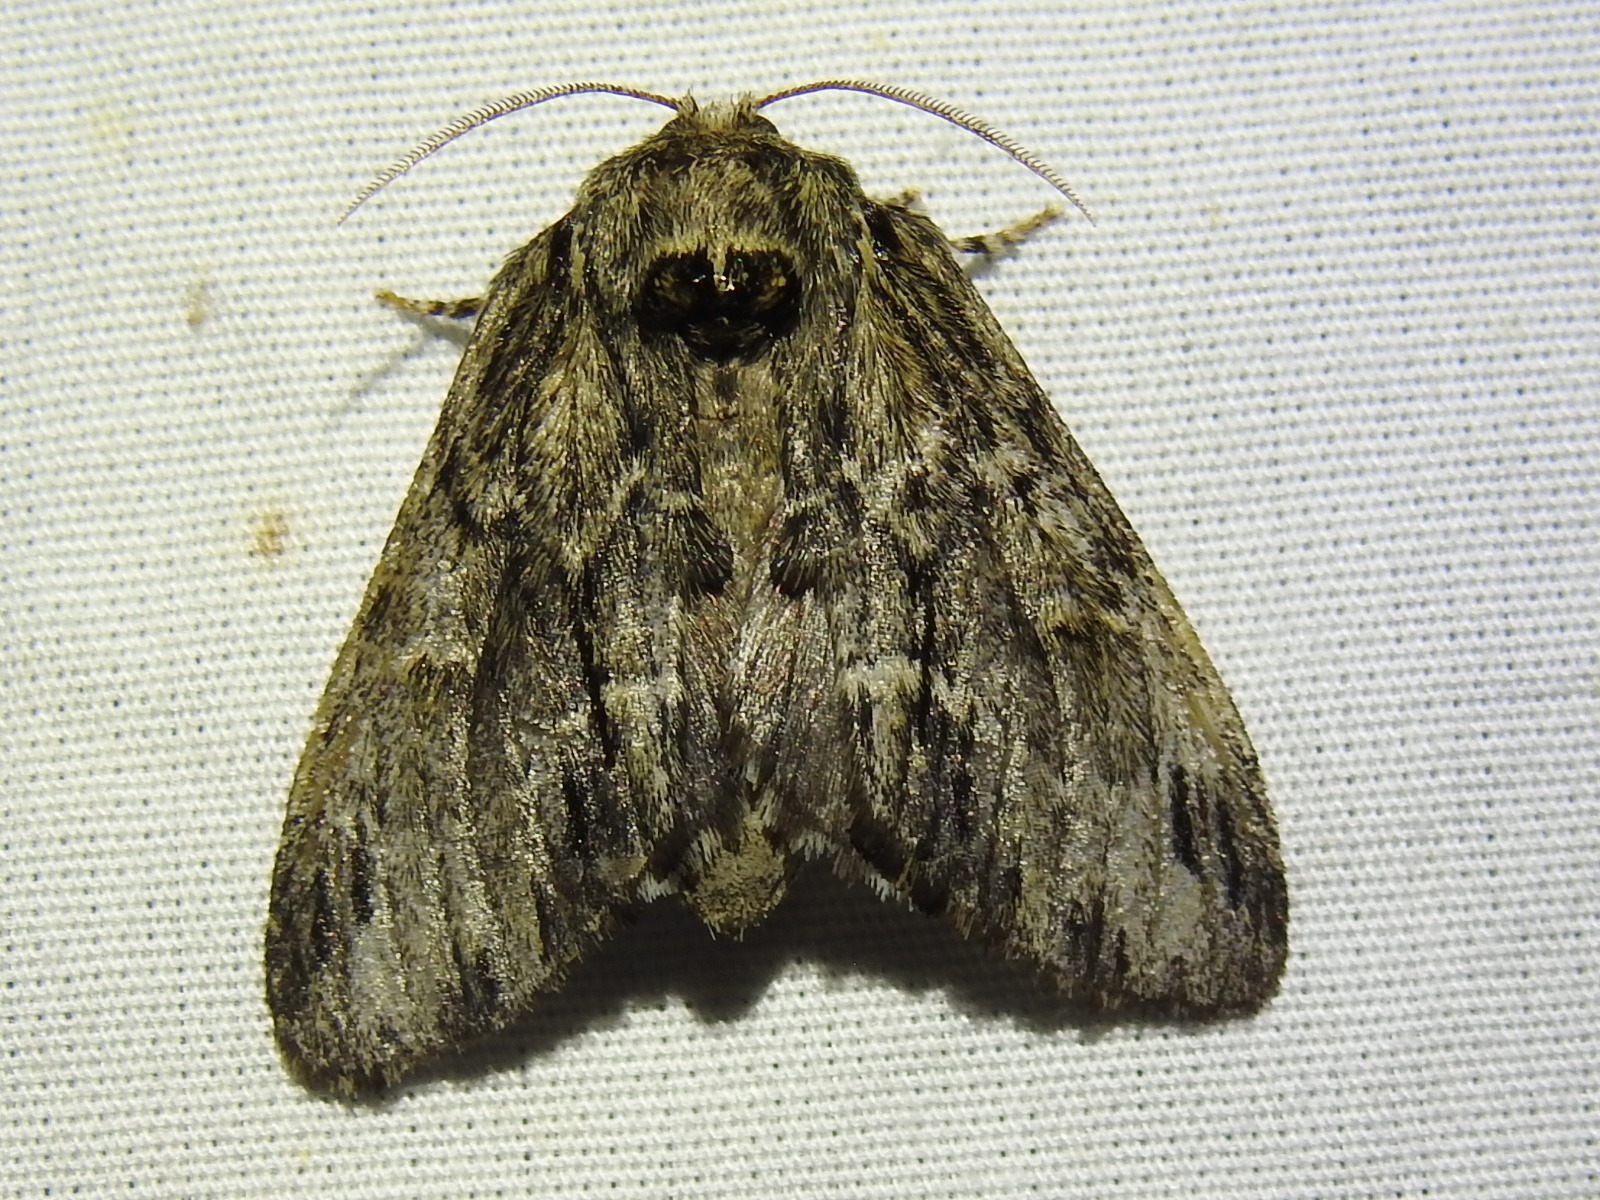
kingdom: Animalia
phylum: Arthropoda
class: Insecta
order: Lepidoptera
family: Notodontidae
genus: Paraeschra
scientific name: Paraeschra georgica
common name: Georgian prominent
